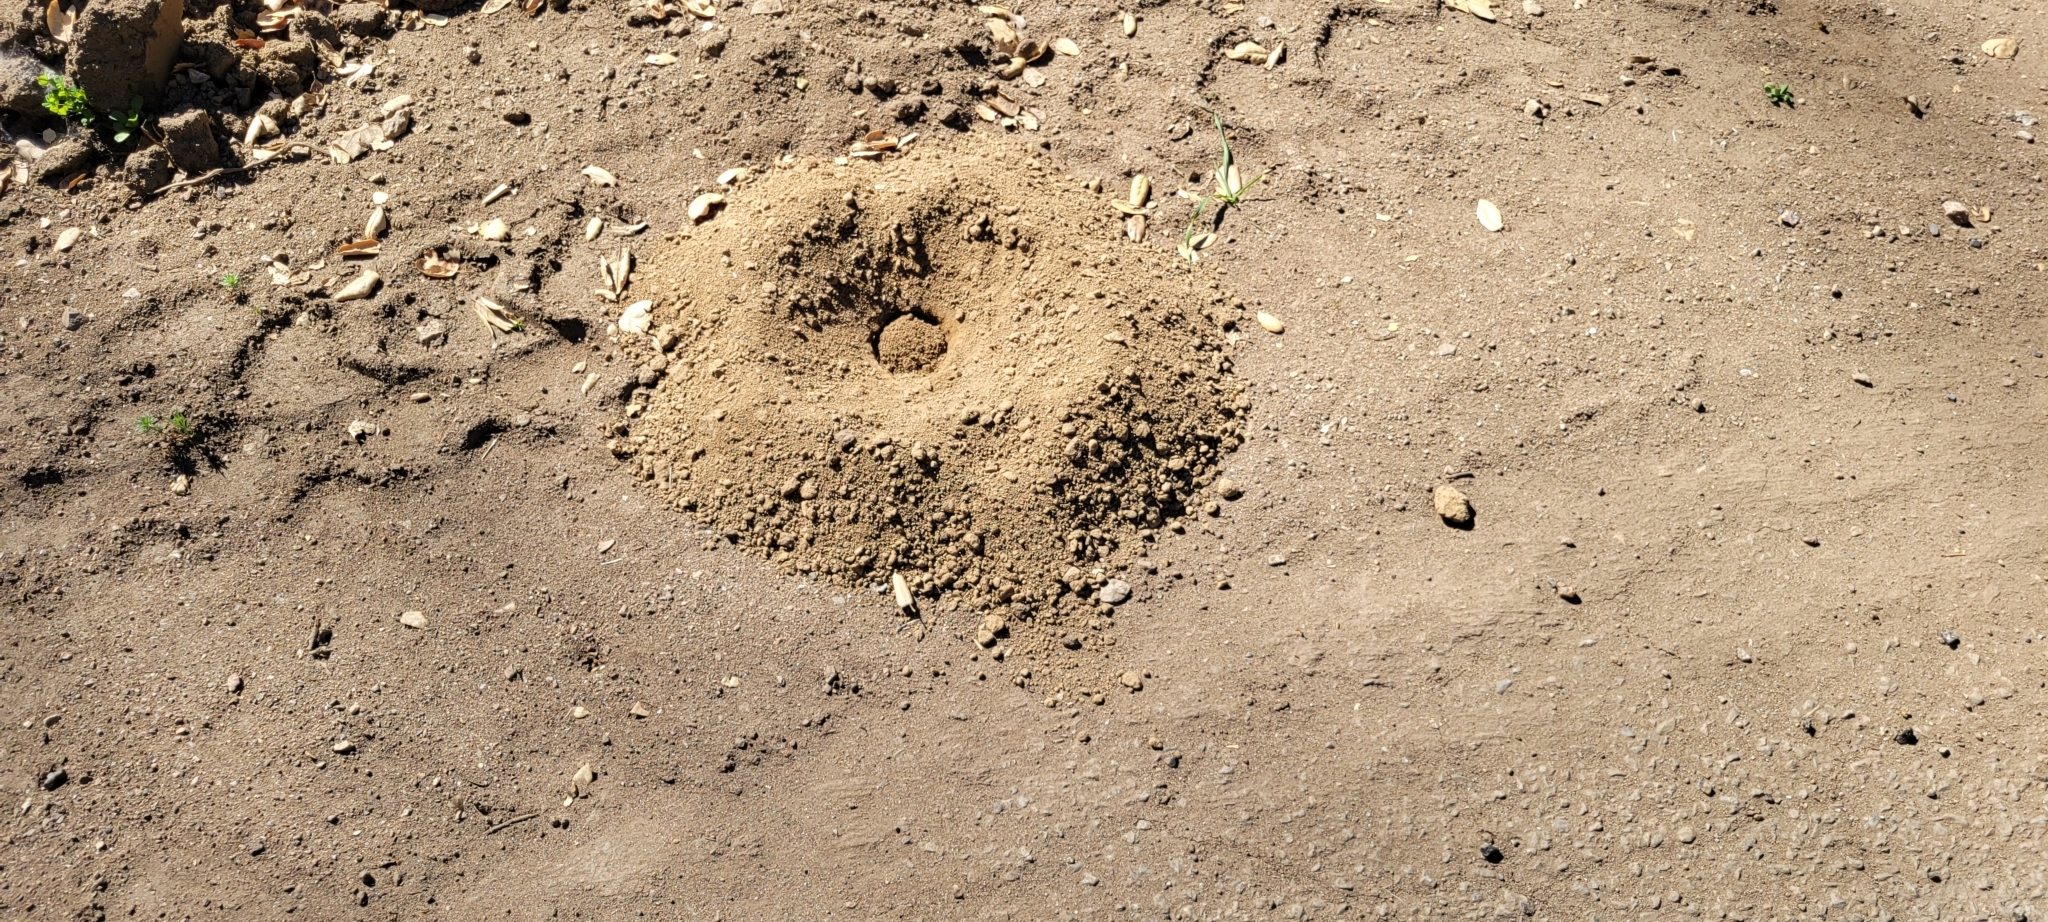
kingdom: Animalia
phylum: Chordata
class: Mammalia
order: Rodentia
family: Geomyidae
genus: Thomomys
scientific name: Thomomys bottae
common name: Botta's pocket gopher
